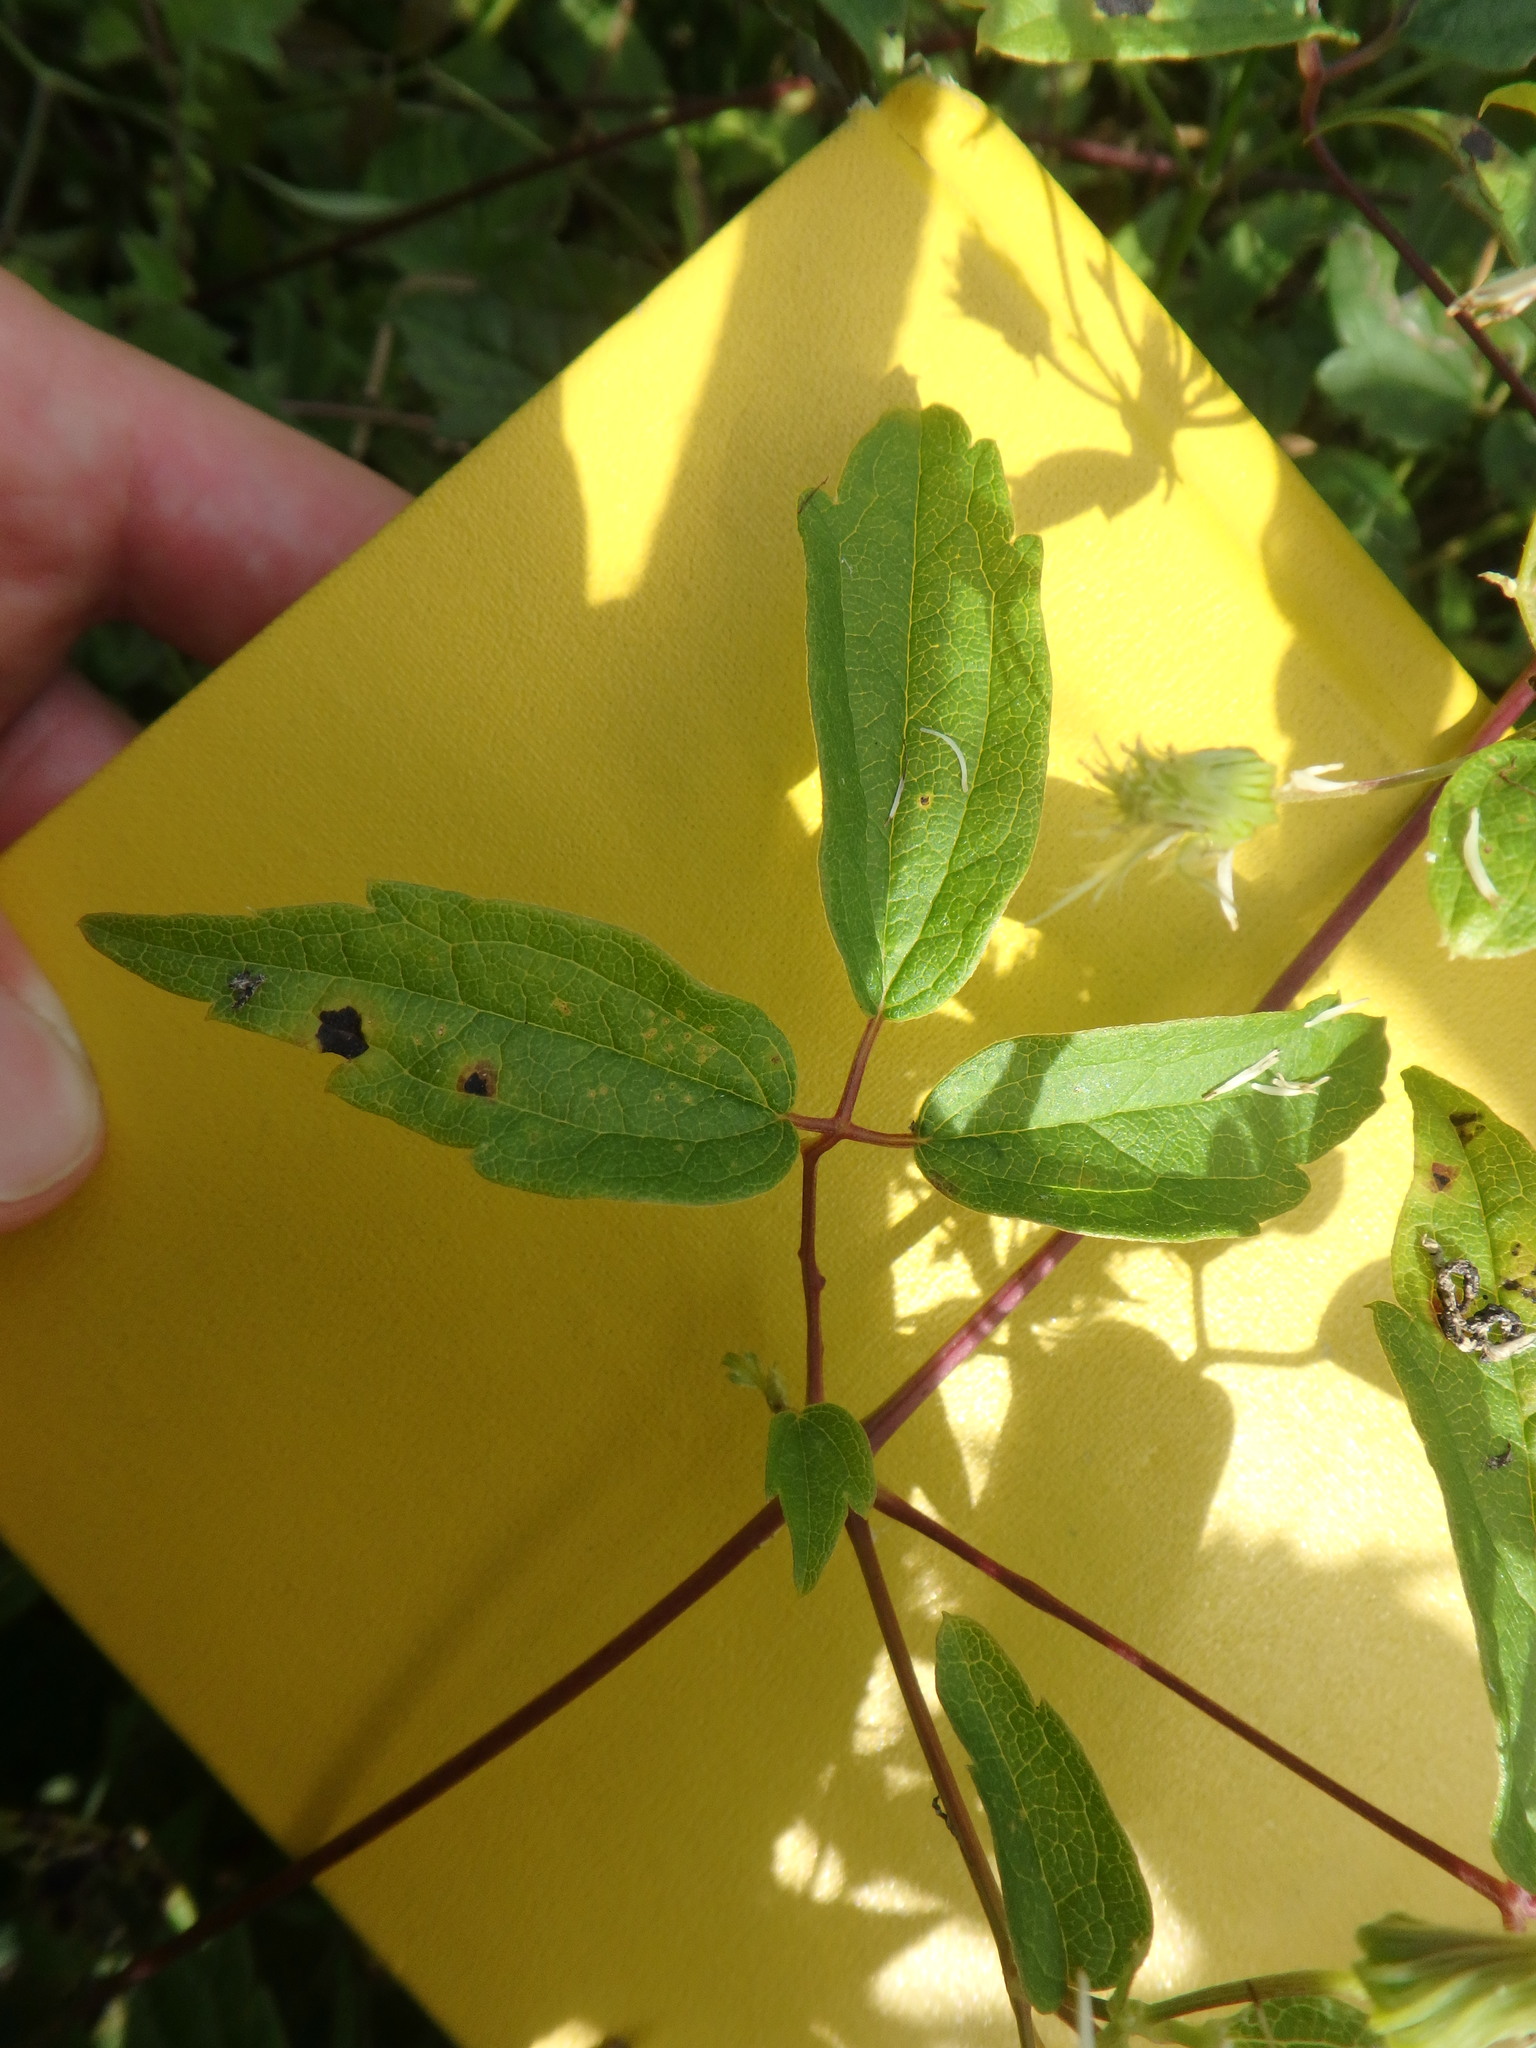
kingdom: Plantae
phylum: Tracheophyta
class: Magnoliopsida
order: Ranunculales
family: Ranunculaceae
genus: Clematis
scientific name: Clematis virginiana
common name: Virgin's-bower
